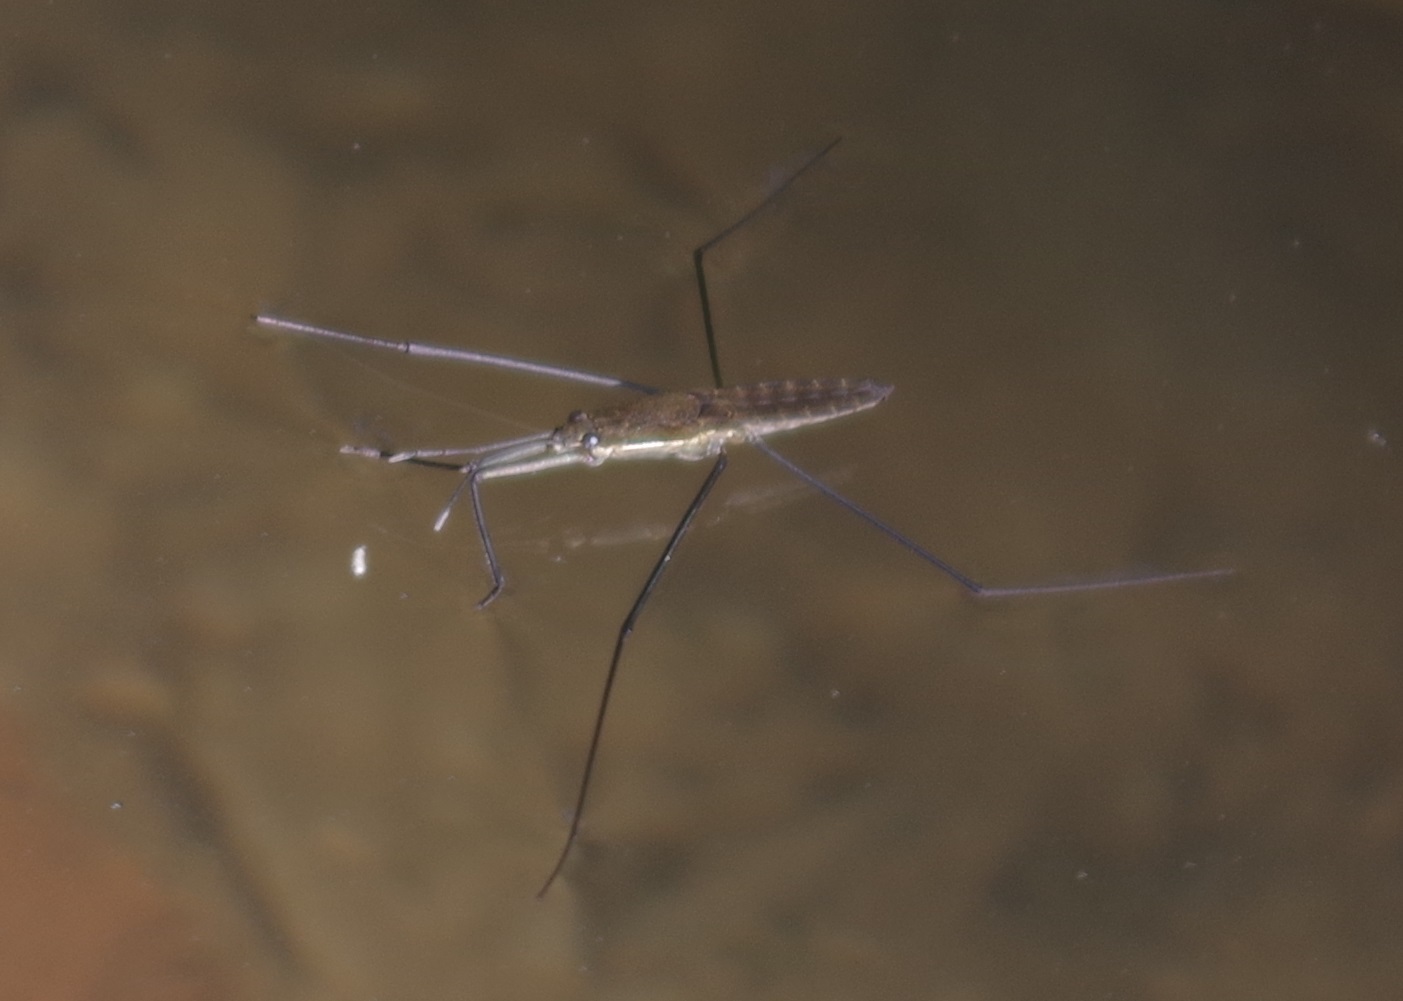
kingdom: Animalia
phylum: Arthropoda
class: Insecta
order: Hemiptera
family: Gerridae
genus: Aquarius
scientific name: Aquarius najas
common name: River skater
